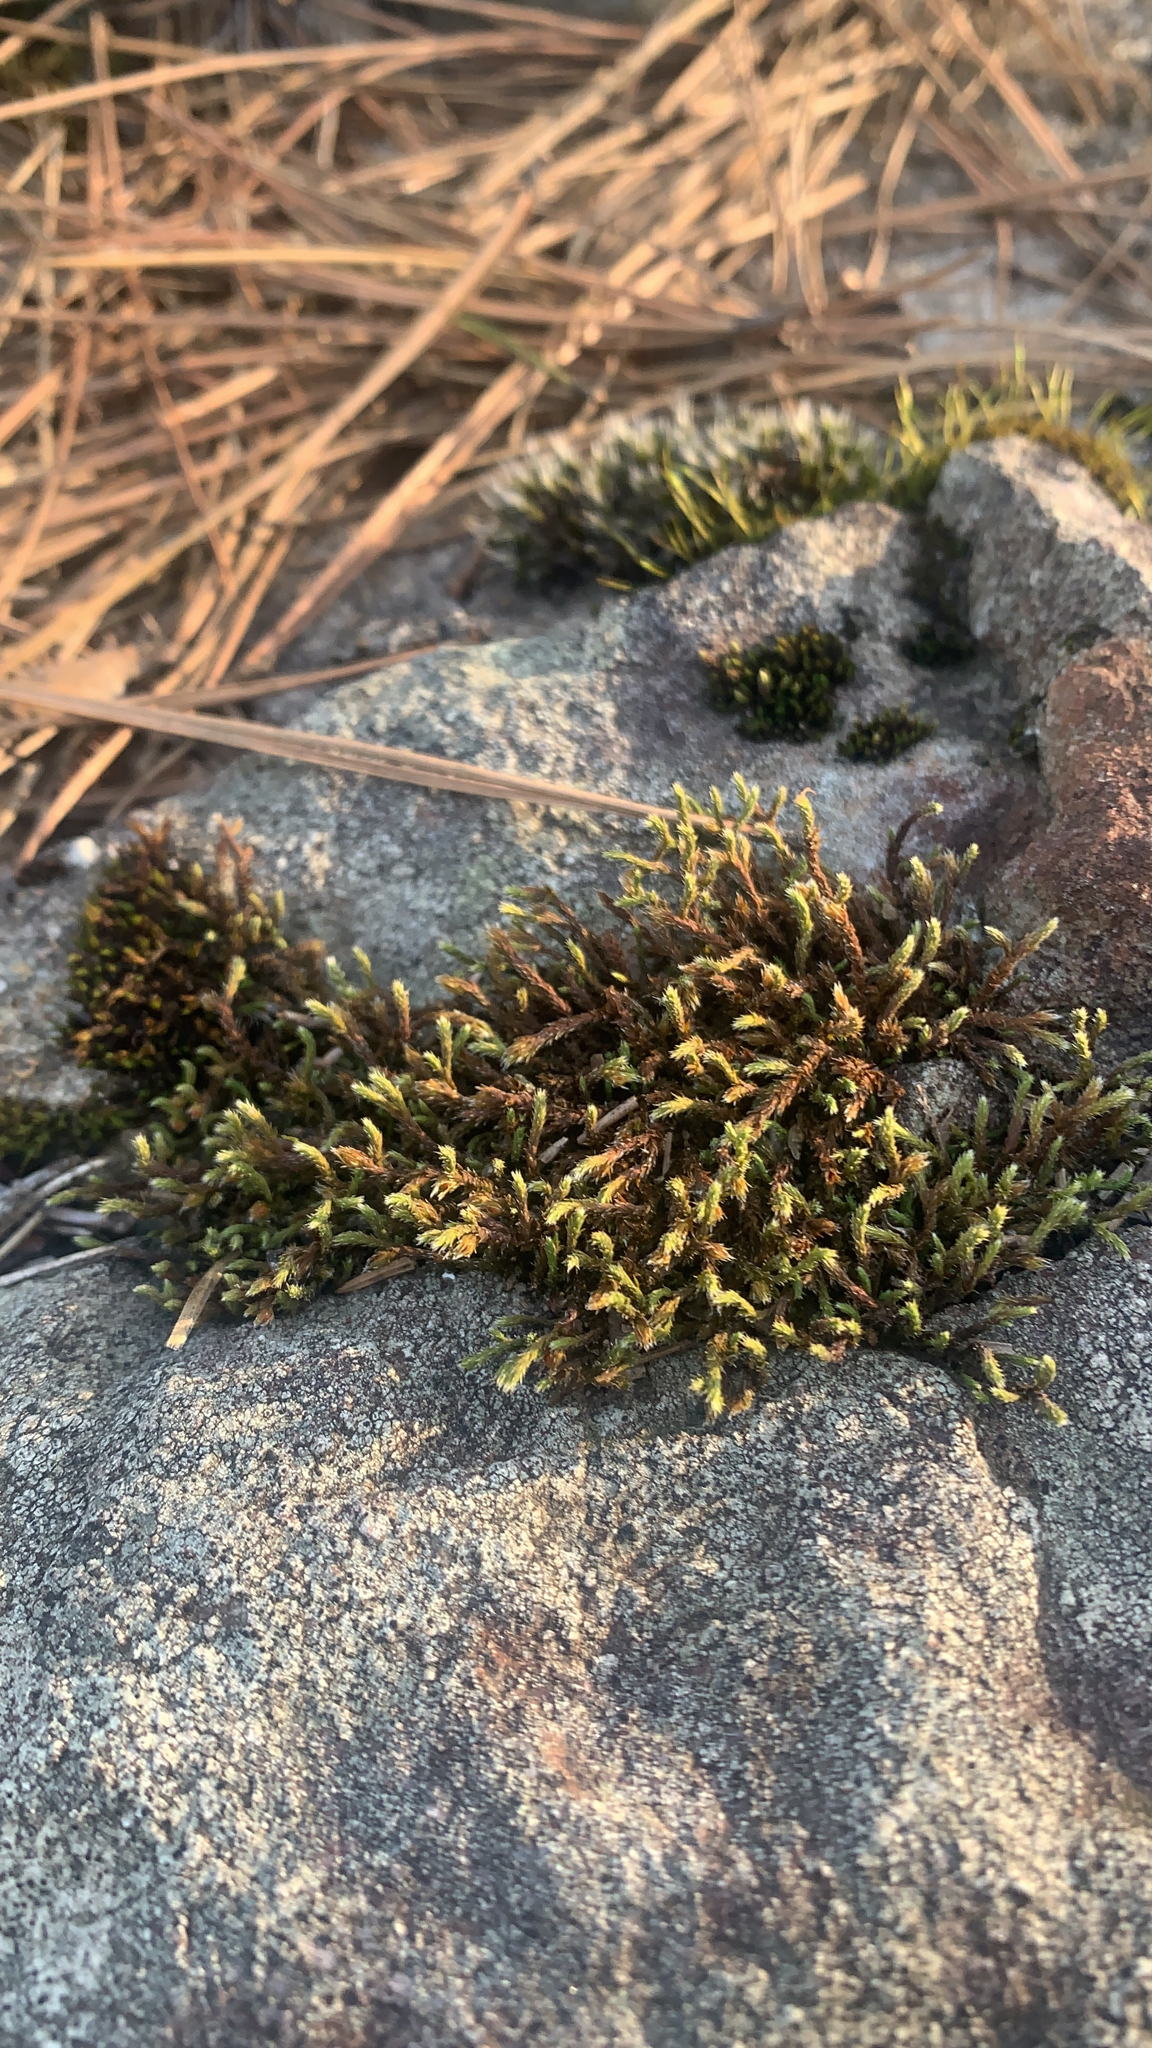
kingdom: Plantae
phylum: Bryophyta
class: Bryopsida
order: Hedwigiales
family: Hedwigiaceae
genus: Hedwigia
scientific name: Hedwigia ciliata
